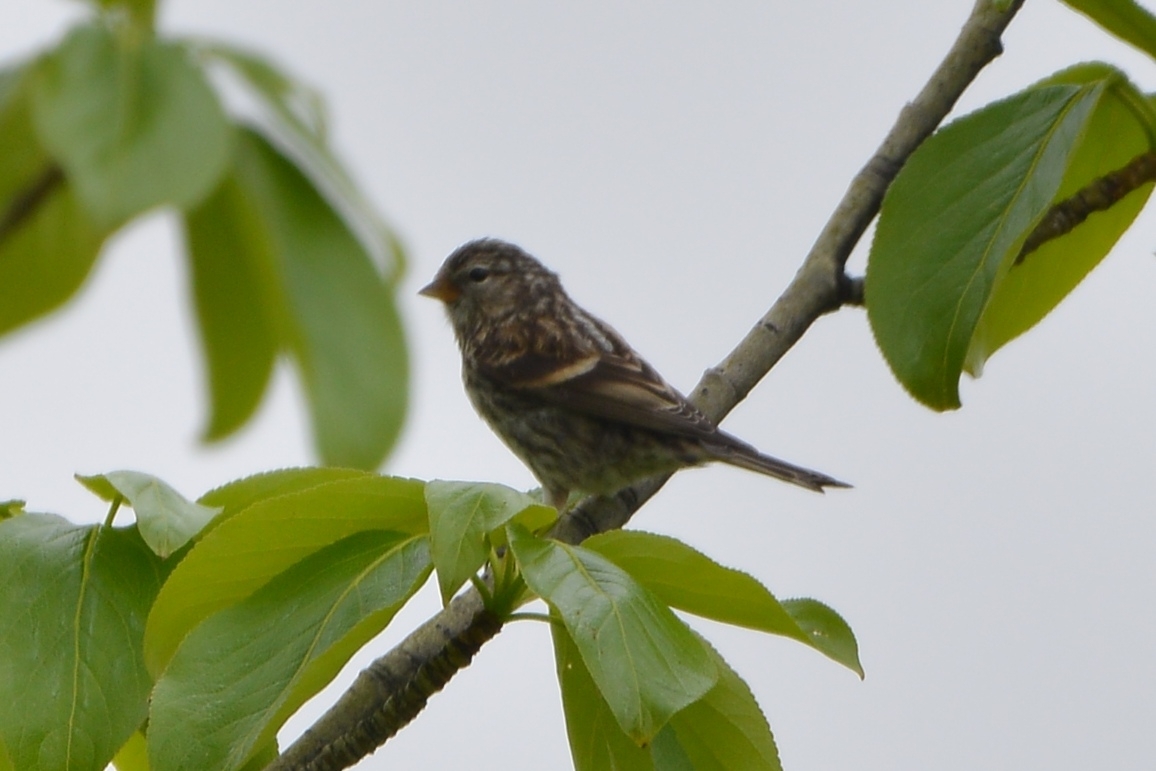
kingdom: Animalia
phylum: Chordata
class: Aves
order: Passeriformes
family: Fringillidae
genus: Acanthis
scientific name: Acanthis flammea
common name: Common redpoll
